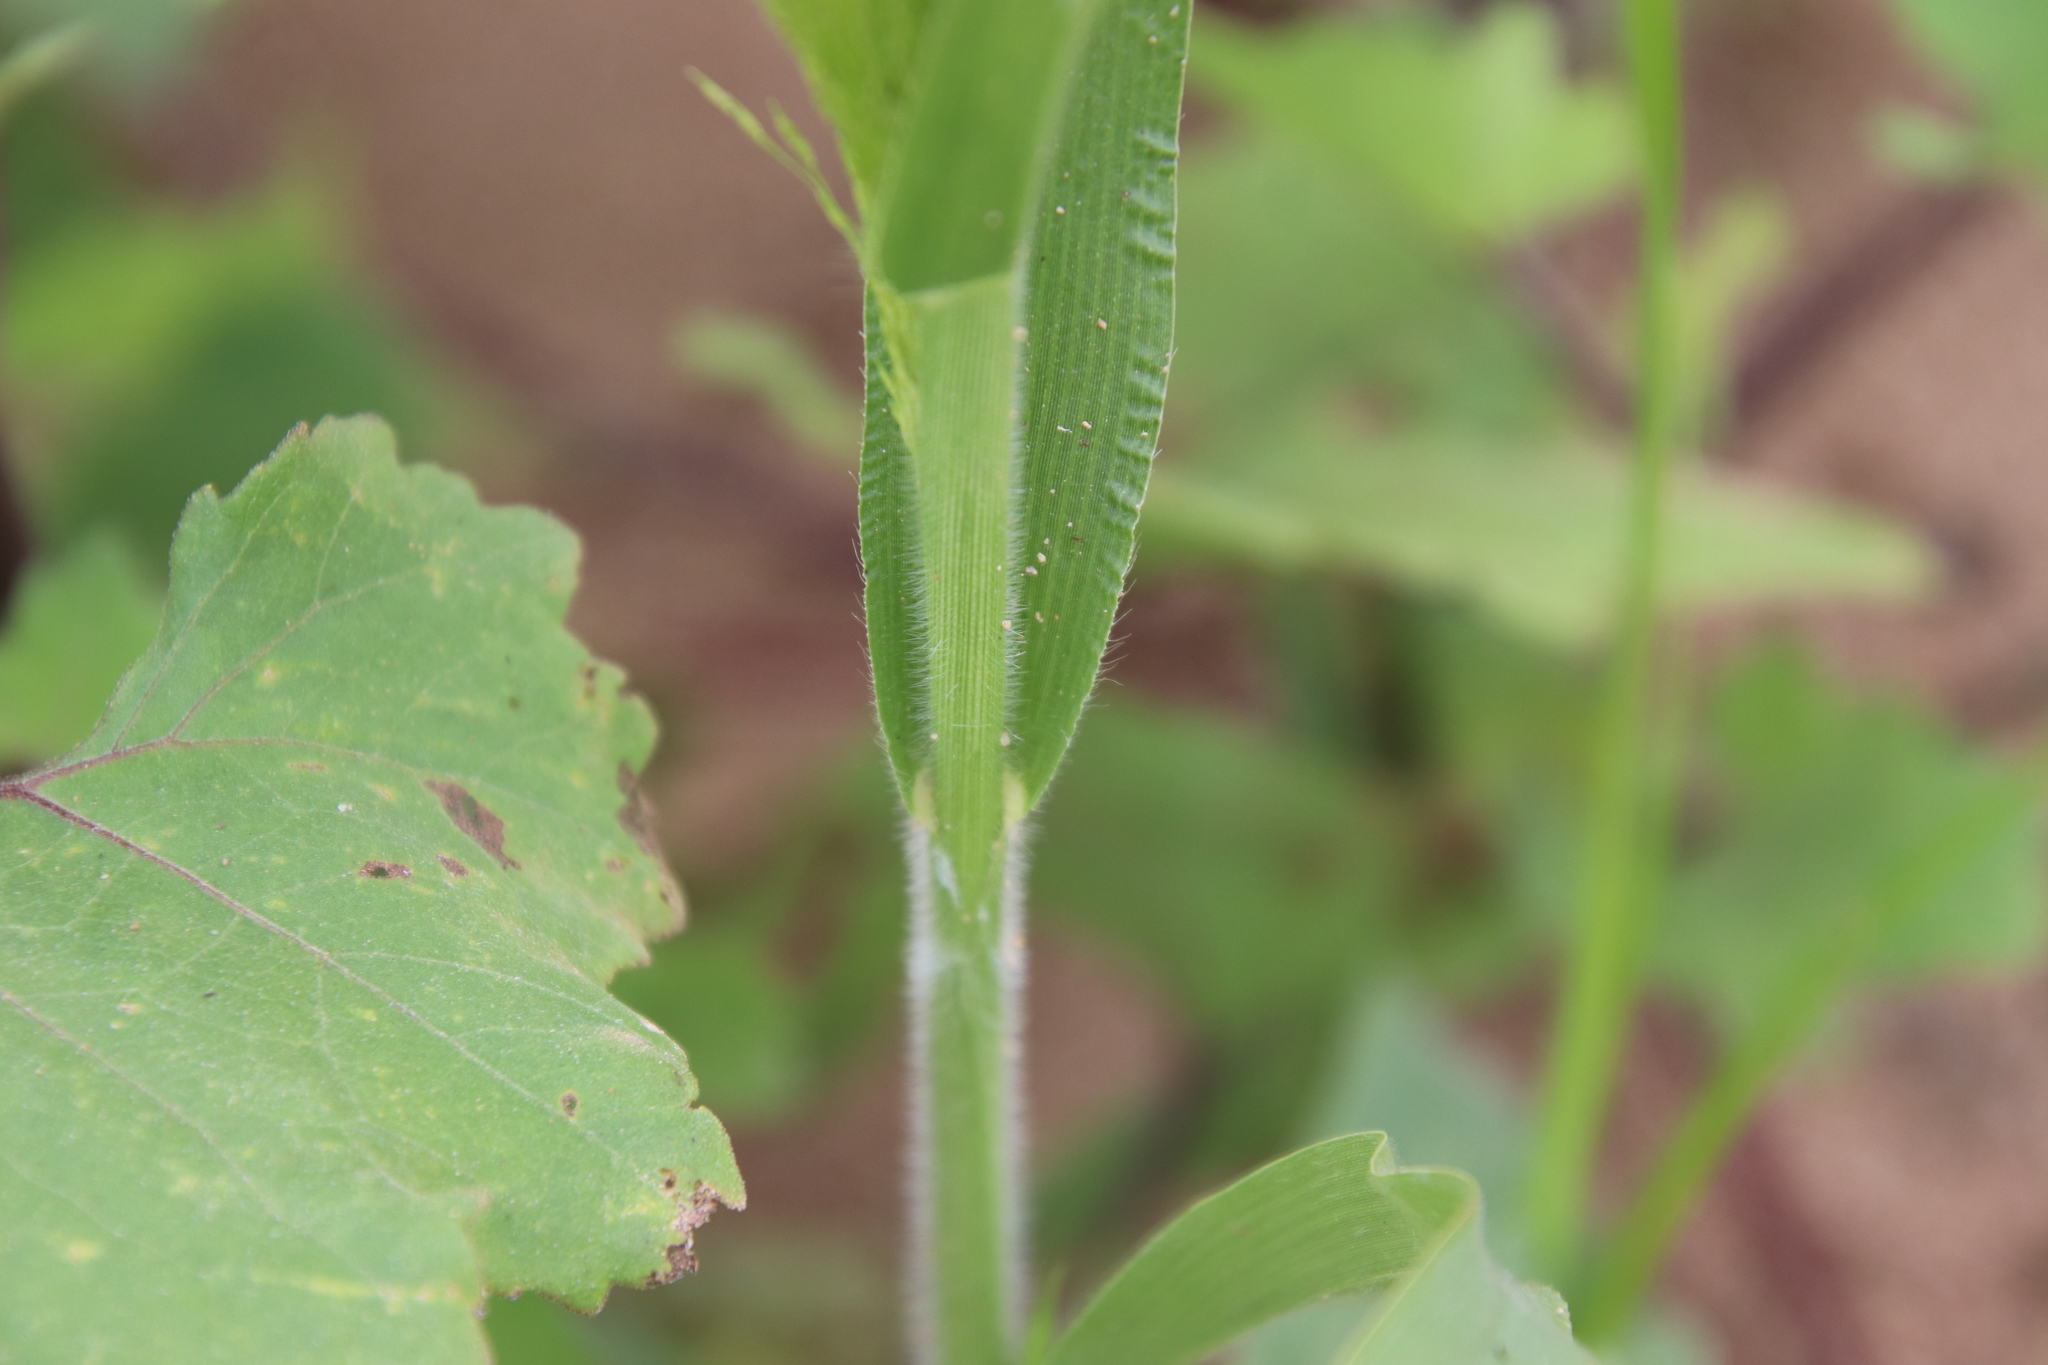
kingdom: Plantae
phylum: Tracheophyta
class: Liliopsida
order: Poales
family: Poaceae
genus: Panicum
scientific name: Panicum capillare
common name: Witch-grass
